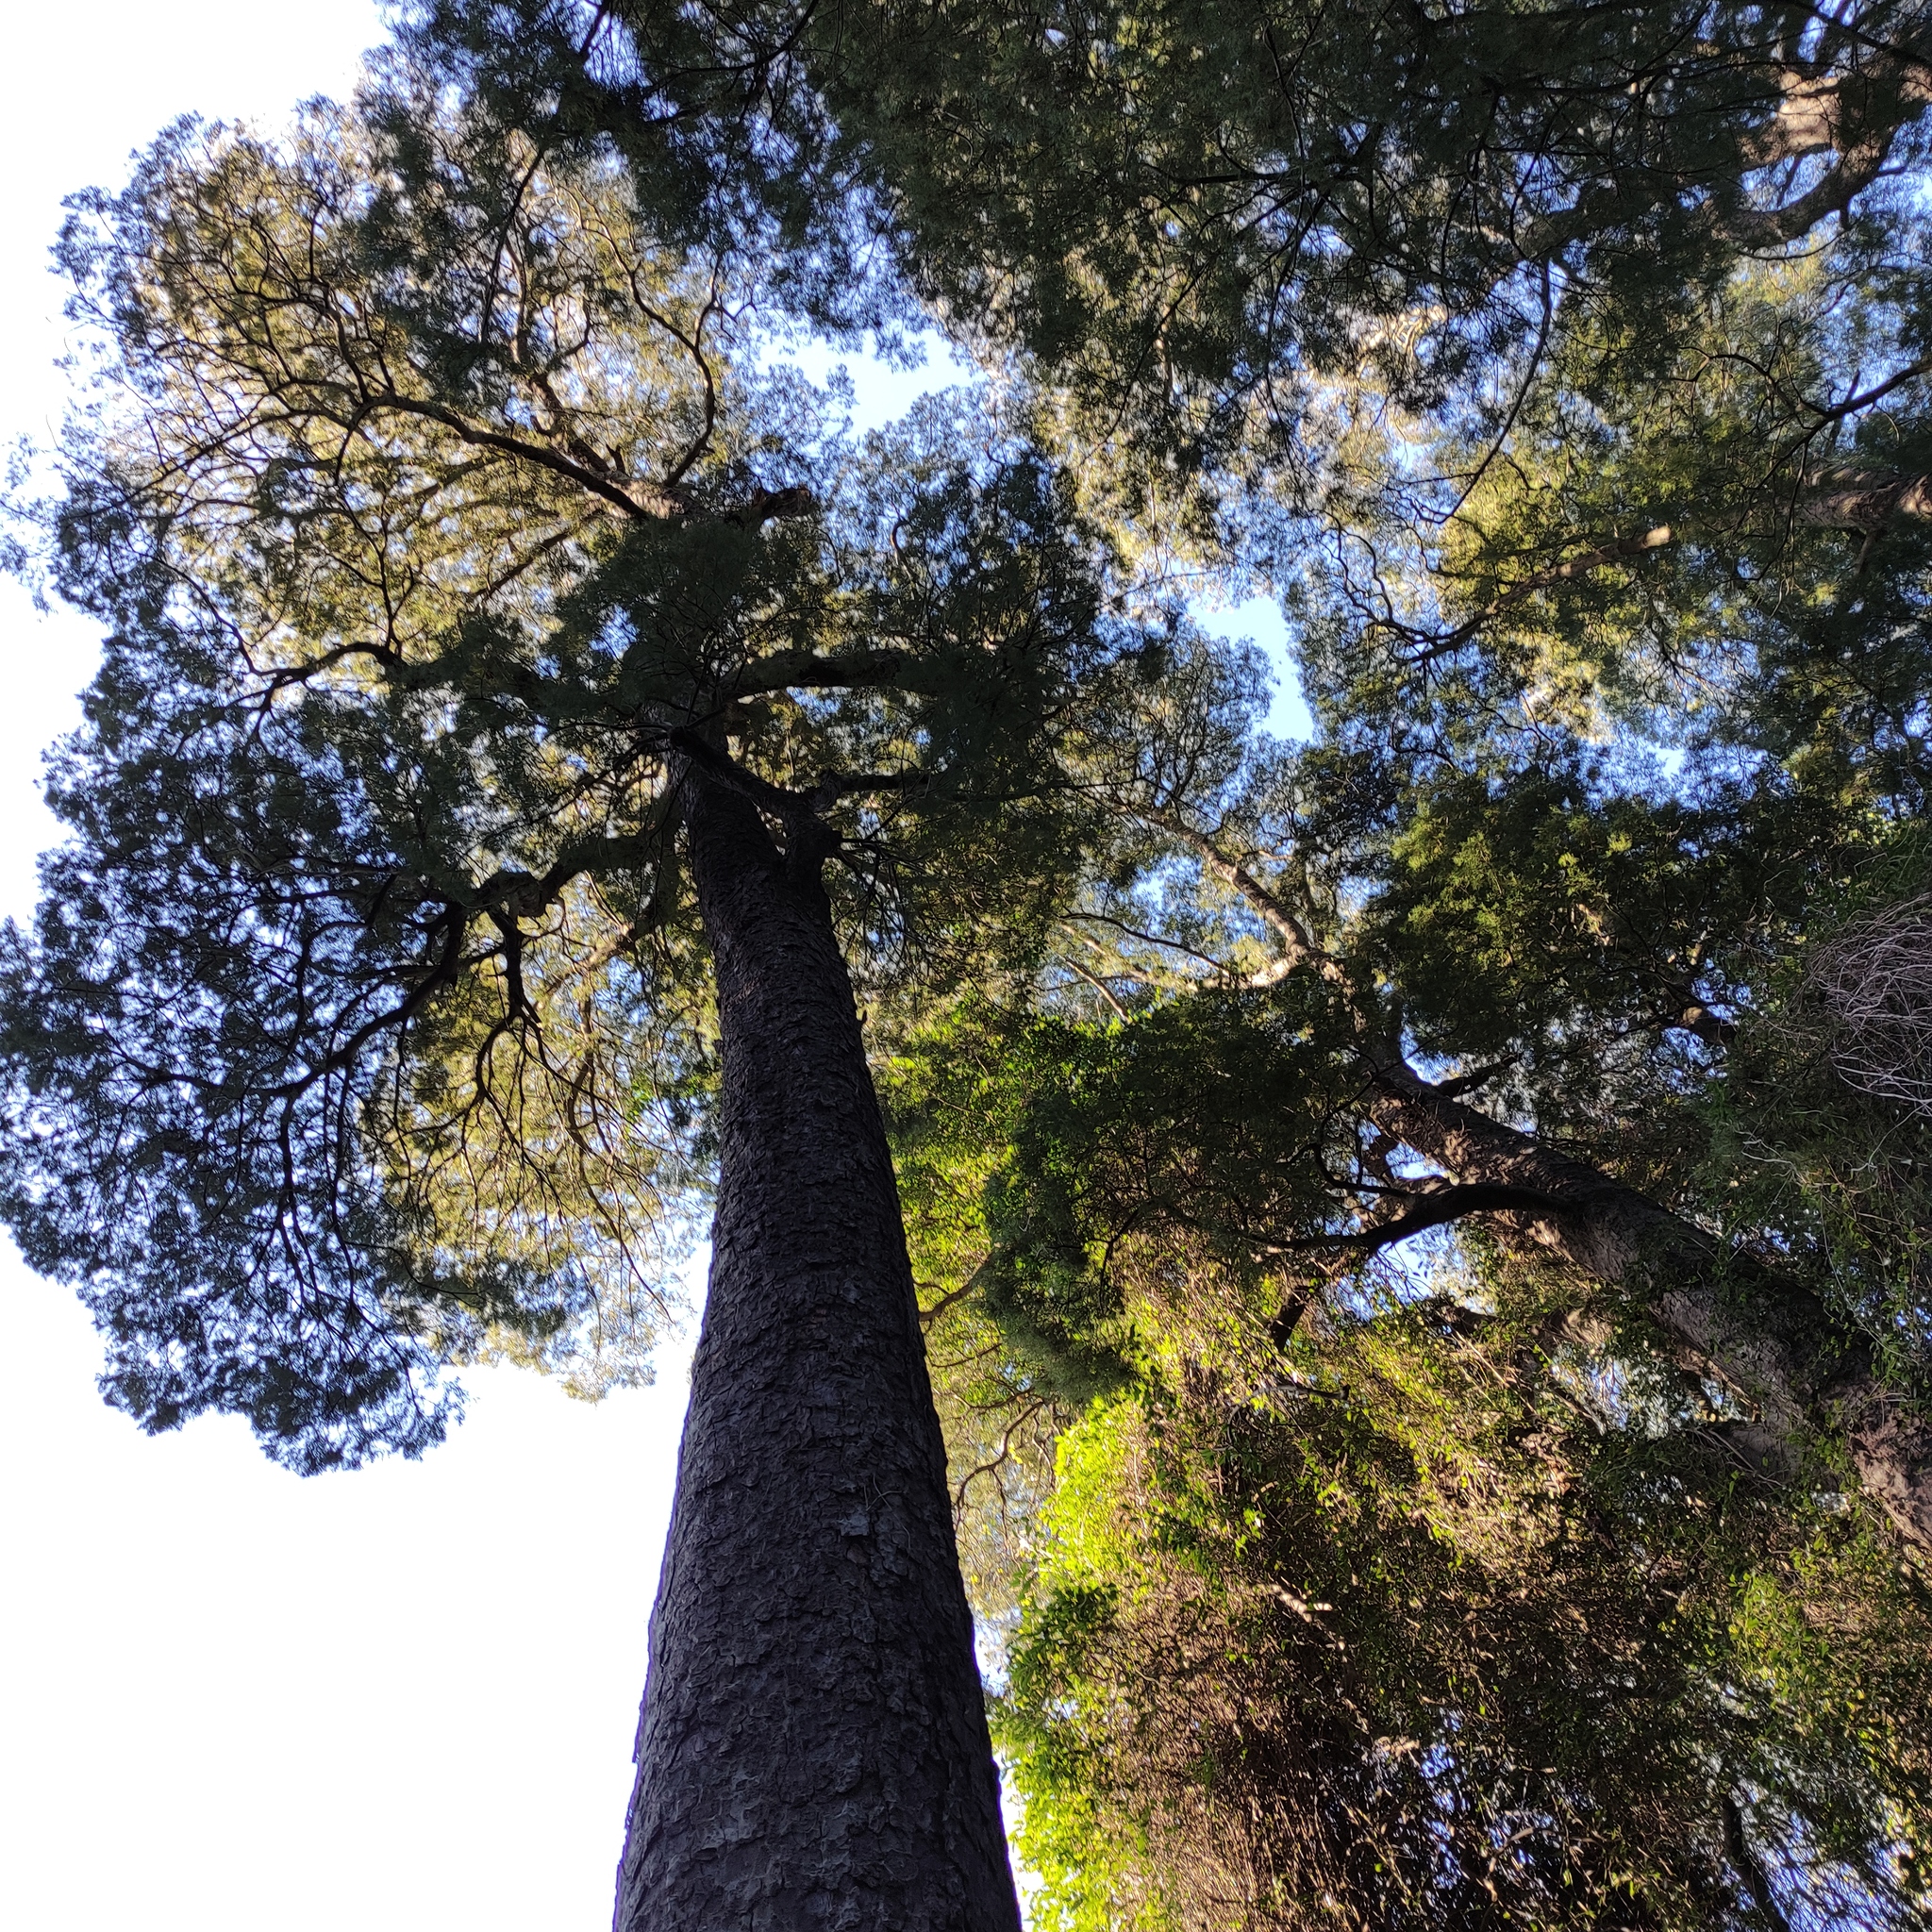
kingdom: Plantae
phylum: Tracheophyta
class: Pinopsida
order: Pinales
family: Podocarpaceae
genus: Dacrycarpus
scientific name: Dacrycarpus dacrydioides
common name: White pine
